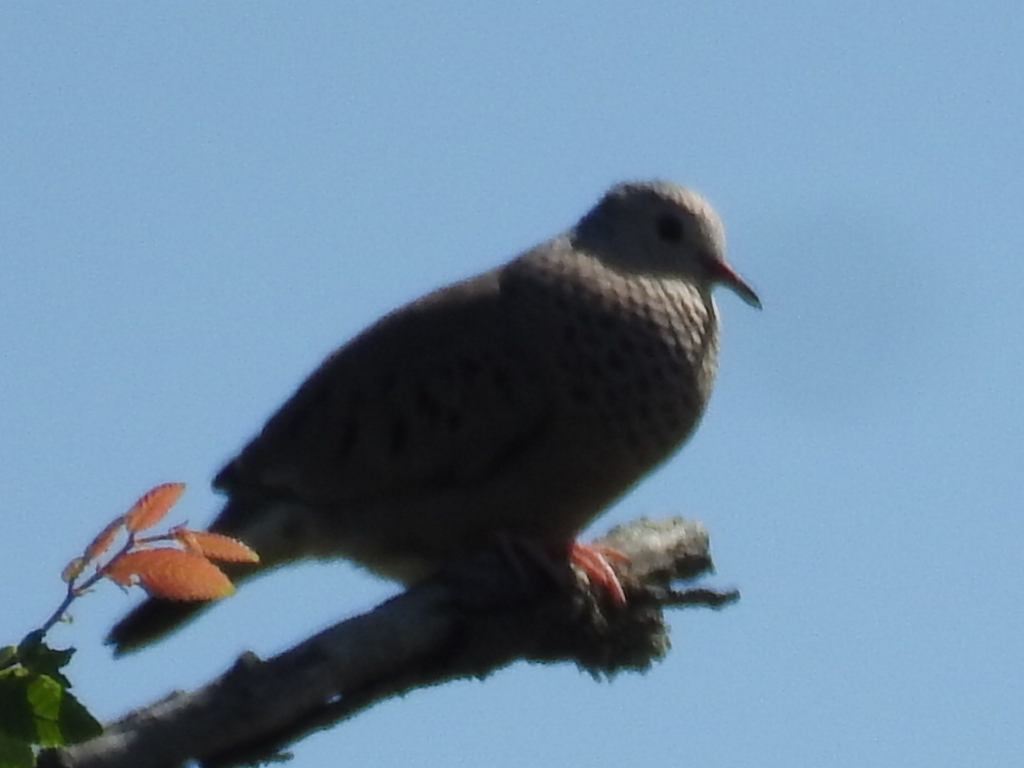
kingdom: Animalia
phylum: Chordata
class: Aves
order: Columbiformes
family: Columbidae
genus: Columbina
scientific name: Columbina passerina
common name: Common ground-dove
